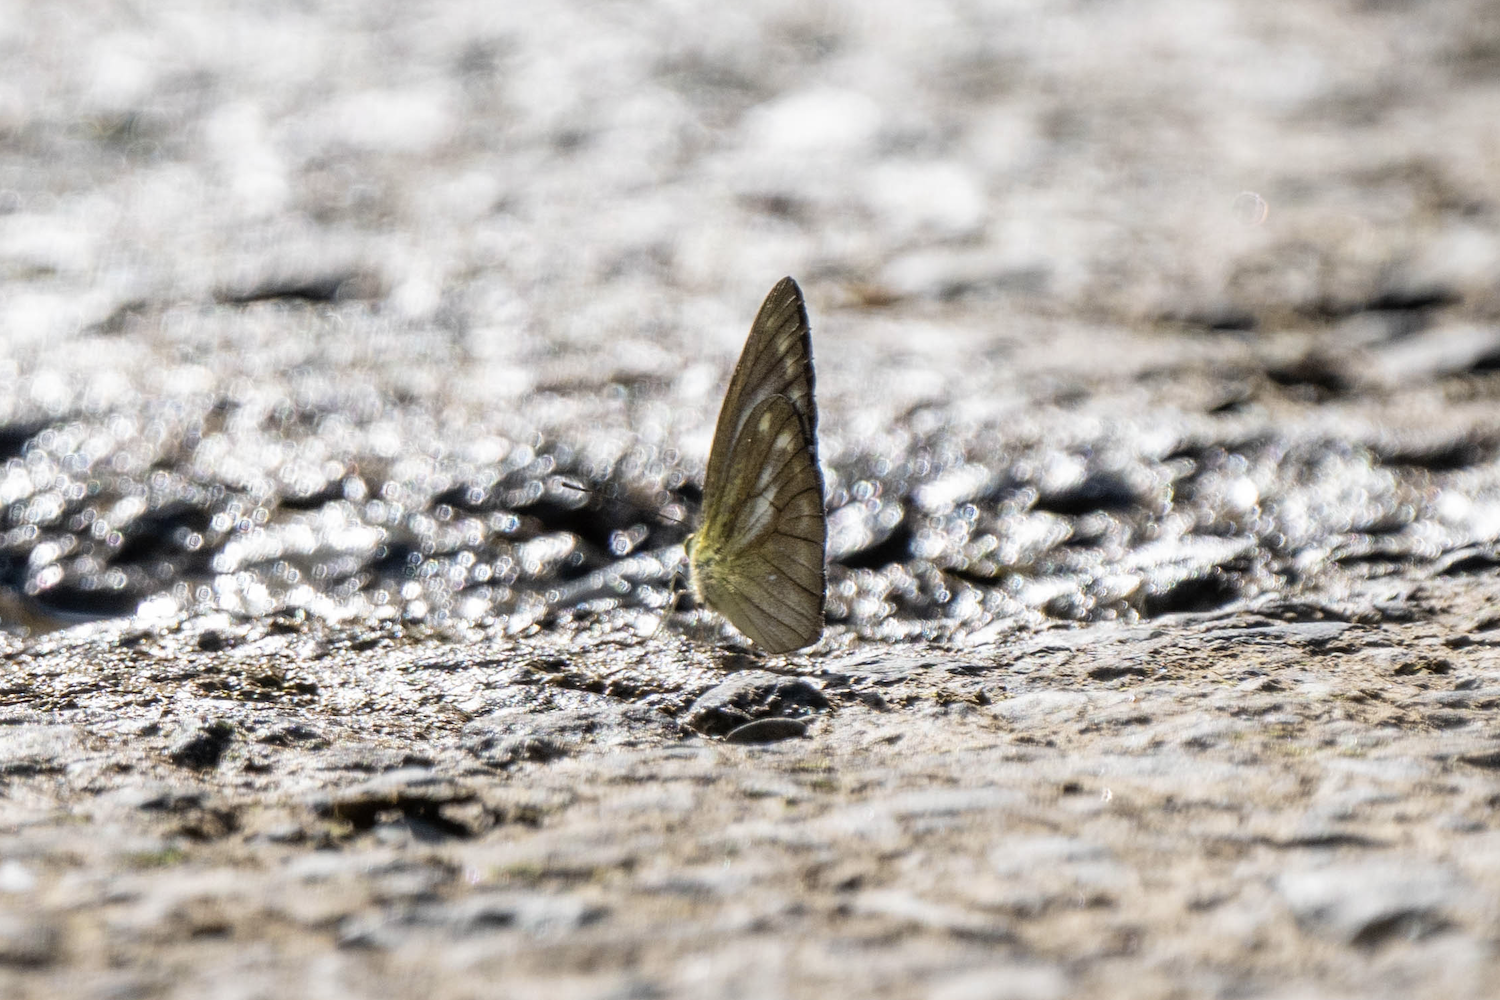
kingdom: Animalia
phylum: Arthropoda
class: Insecta
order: Lepidoptera
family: Pieridae
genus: Cepora
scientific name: Cepora nadina
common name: Lesser gull
